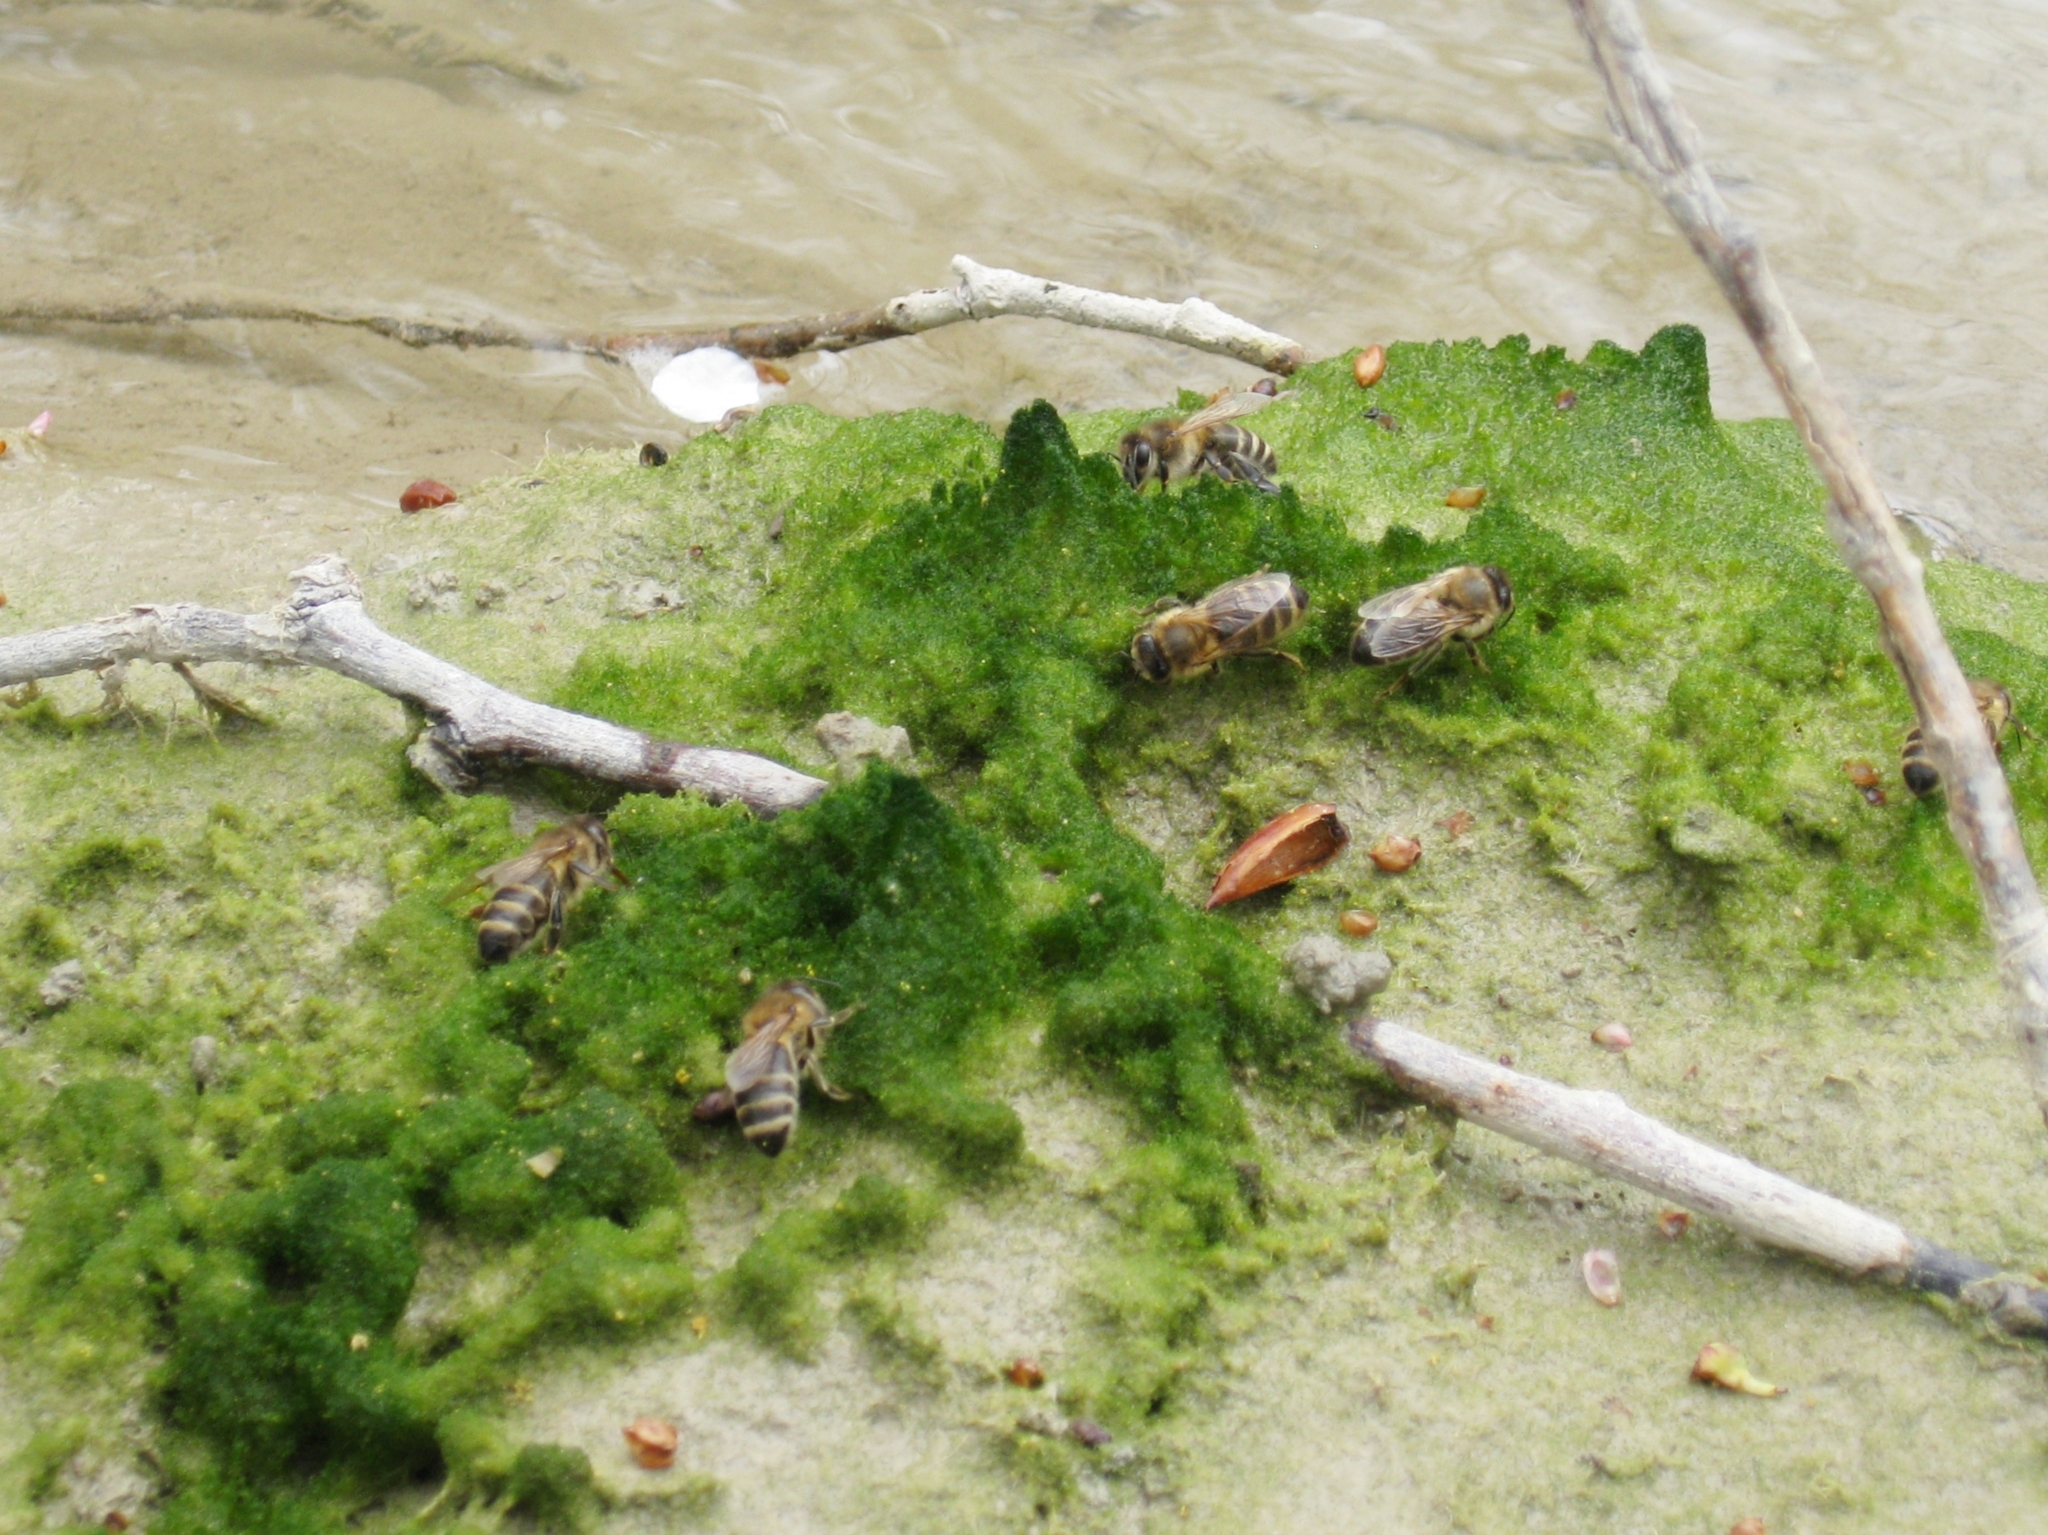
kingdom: Animalia
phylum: Arthropoda
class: Insecta
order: Hymenoptera
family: Apidae
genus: Apis
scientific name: Apis mellifera
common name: Honey bee
